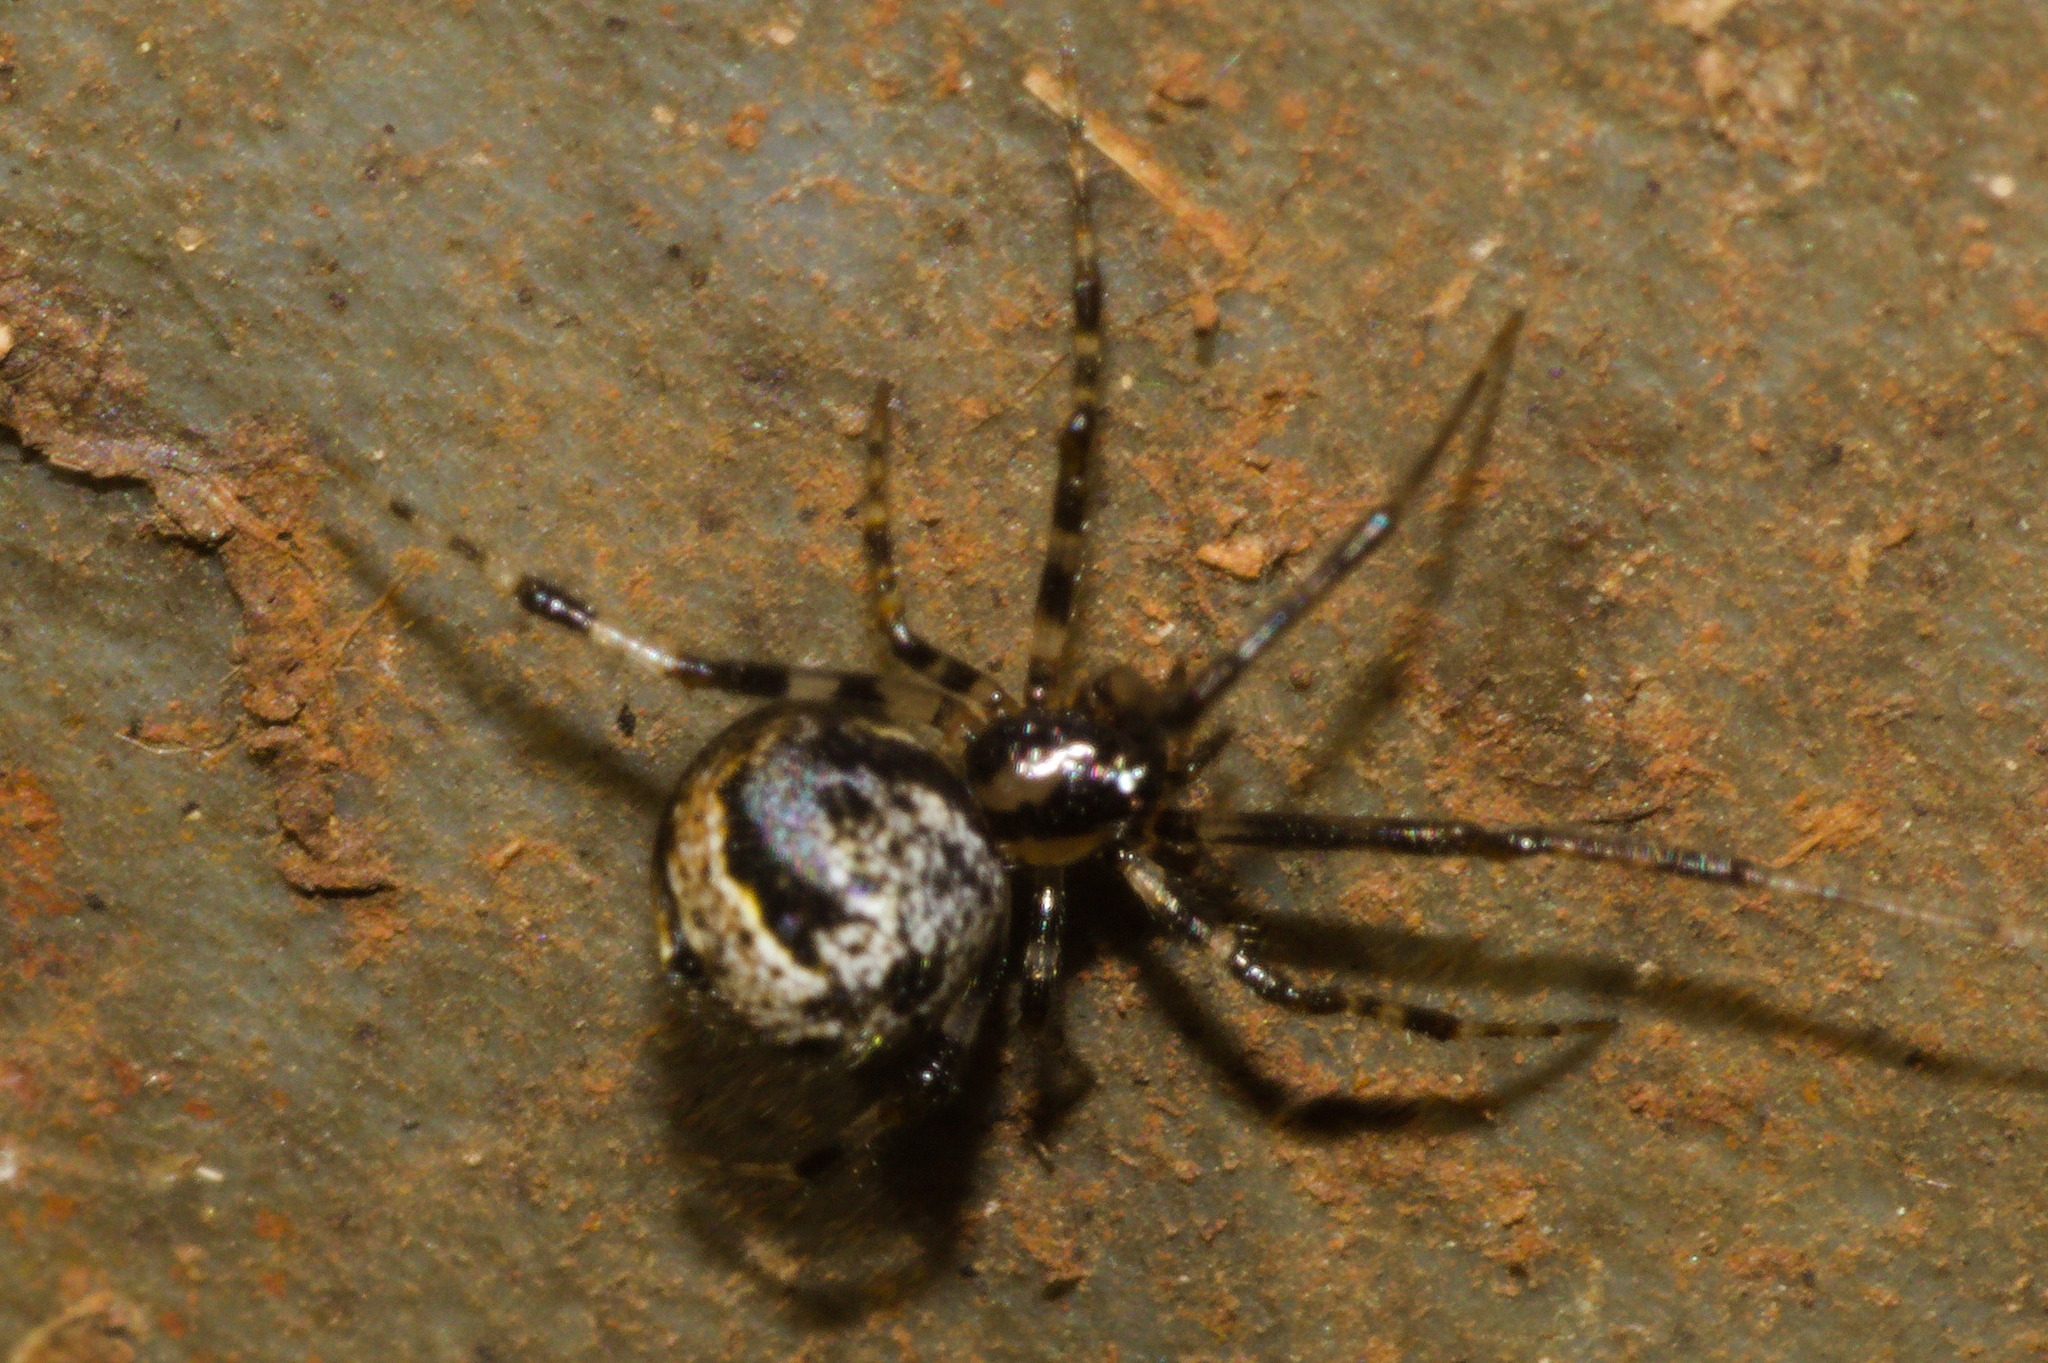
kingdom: Animalia
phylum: Arthropoda
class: Arachnida
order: Araneae
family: Theridiidae
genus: Parasteatoda
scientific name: Parasteatoda tepidariorum
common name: Common house spider
